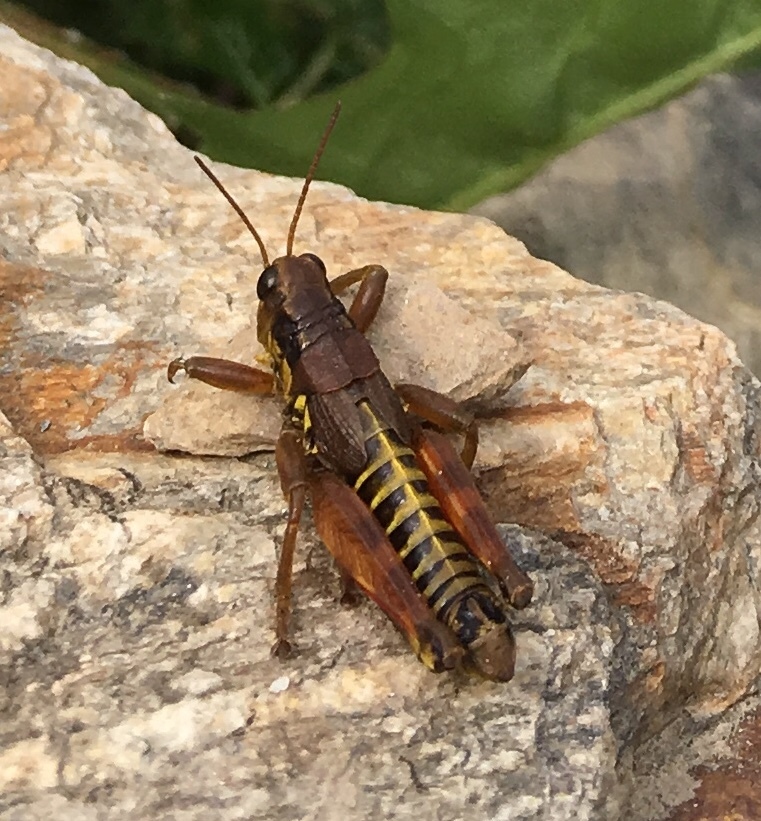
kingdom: Animalia
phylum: Arthropoda
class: Insecta
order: Orthoptera
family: Acrididae
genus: Podisma
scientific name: Podisma pedestris
